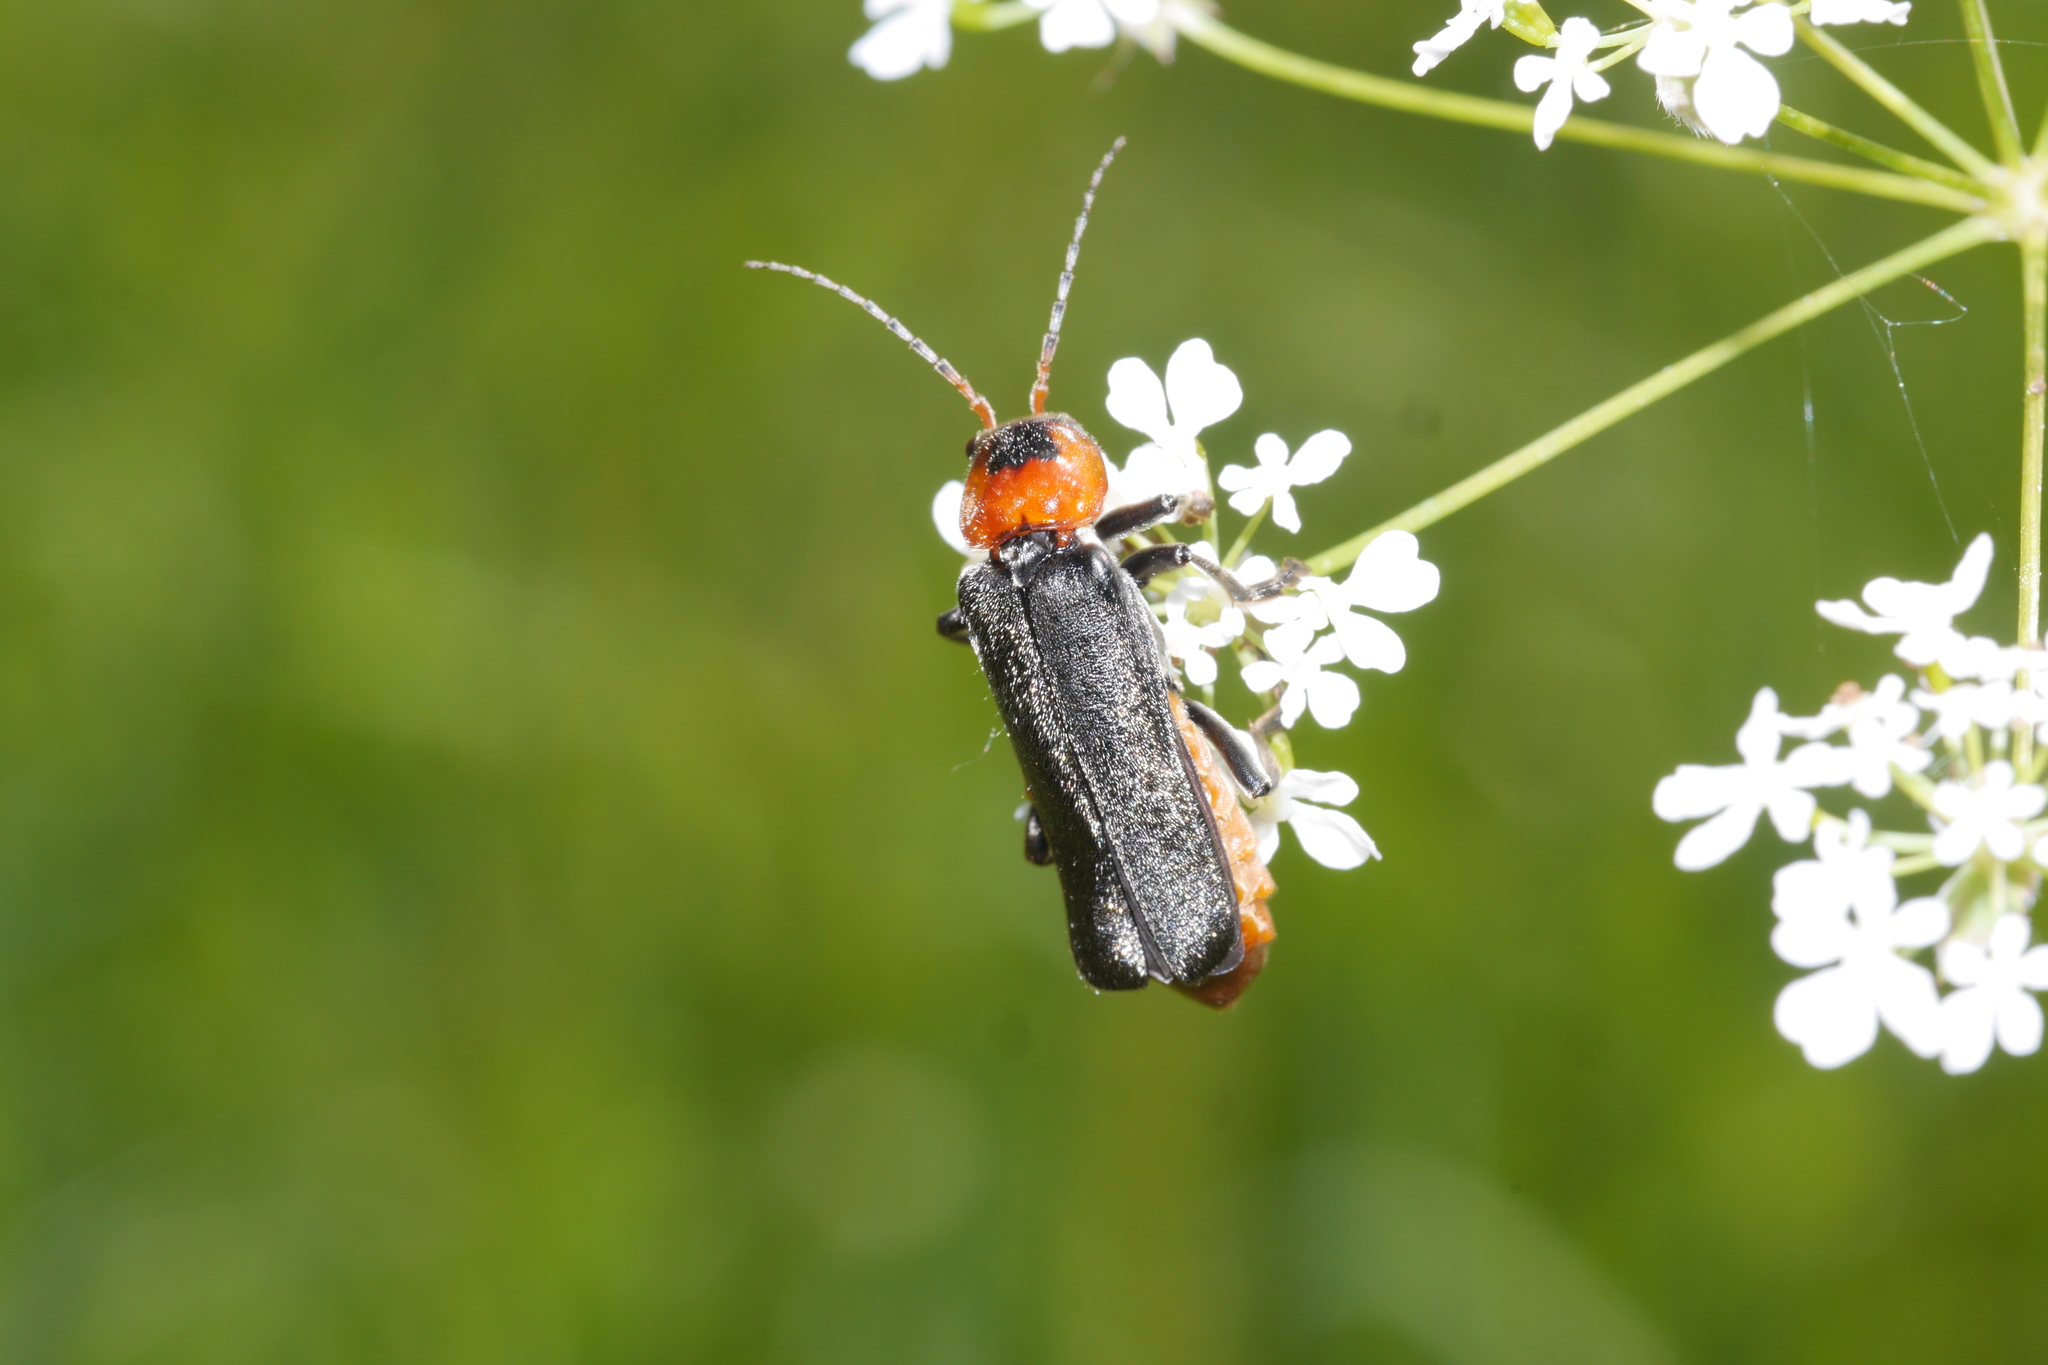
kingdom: Animalia
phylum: Arthropoda
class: Insecta
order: Coleoptera
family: Cantharidae
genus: Cantharis
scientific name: Cantharis fusca
